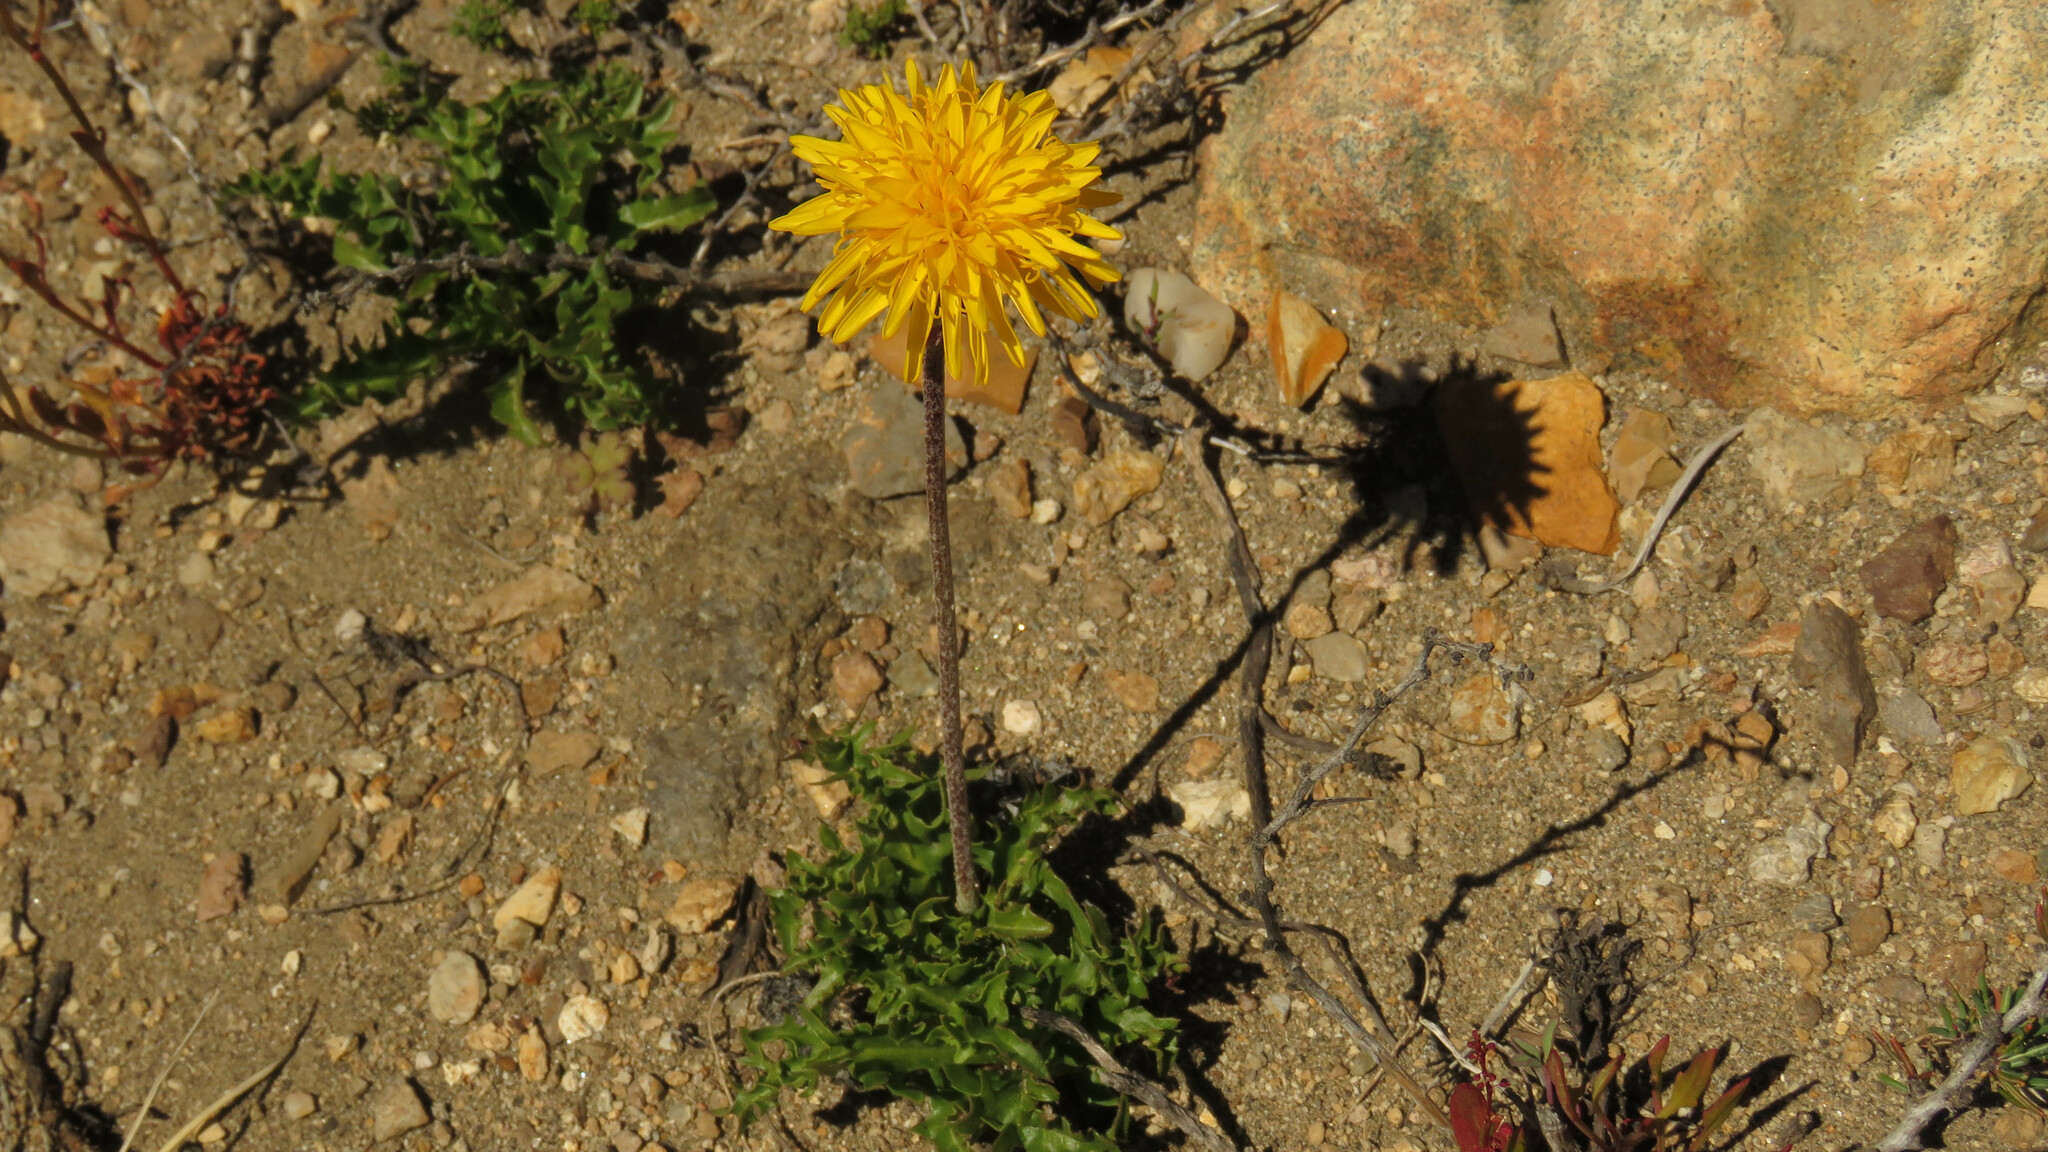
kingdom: Plantae
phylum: Tracheophyta
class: Magnoliopsida
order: Asterales
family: Asteraceae
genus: Hypochaeris
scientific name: Hypochaeris tenuifolia
